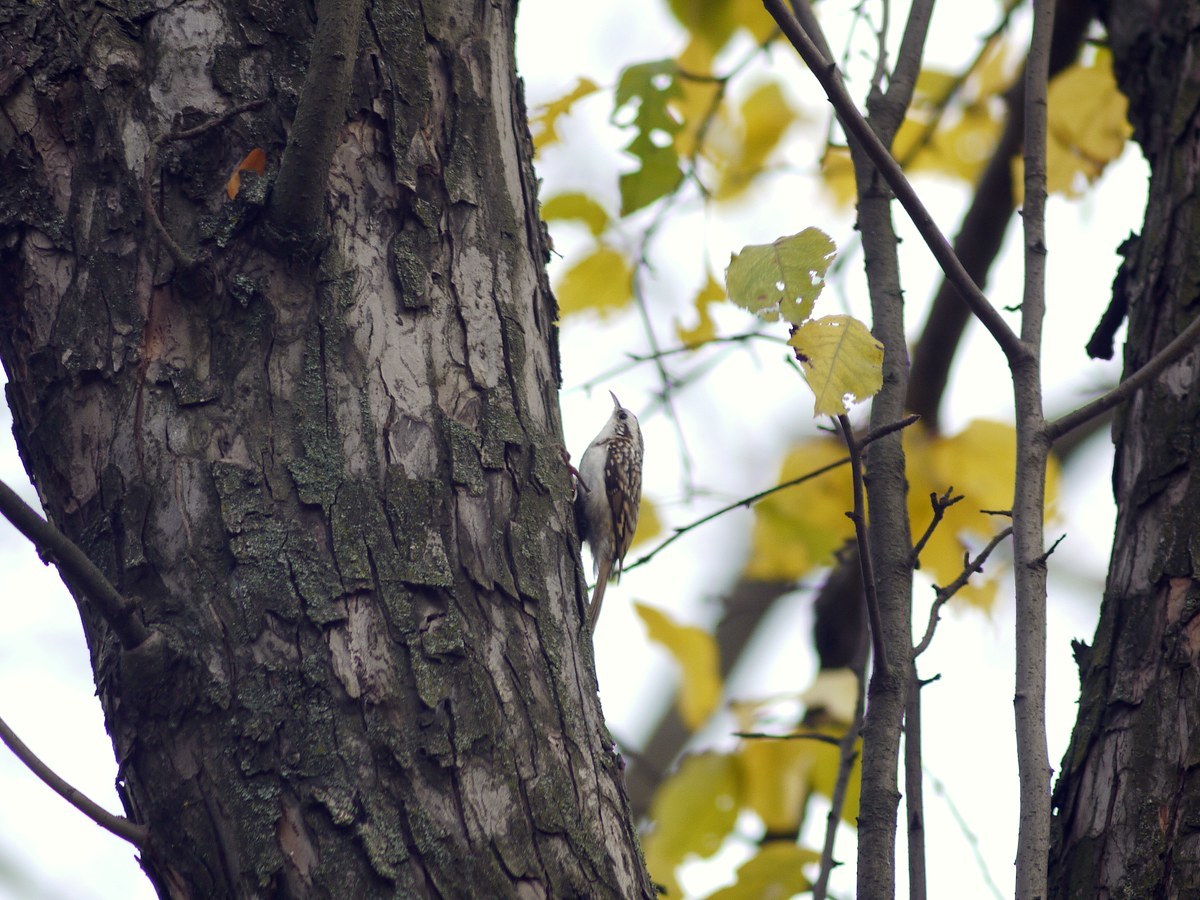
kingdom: Animalia
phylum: Chordata
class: Aves
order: Passeriformes
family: Certhiidae
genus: Certhia
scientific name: Certhia familiaris
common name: Eurasian treecreeper
